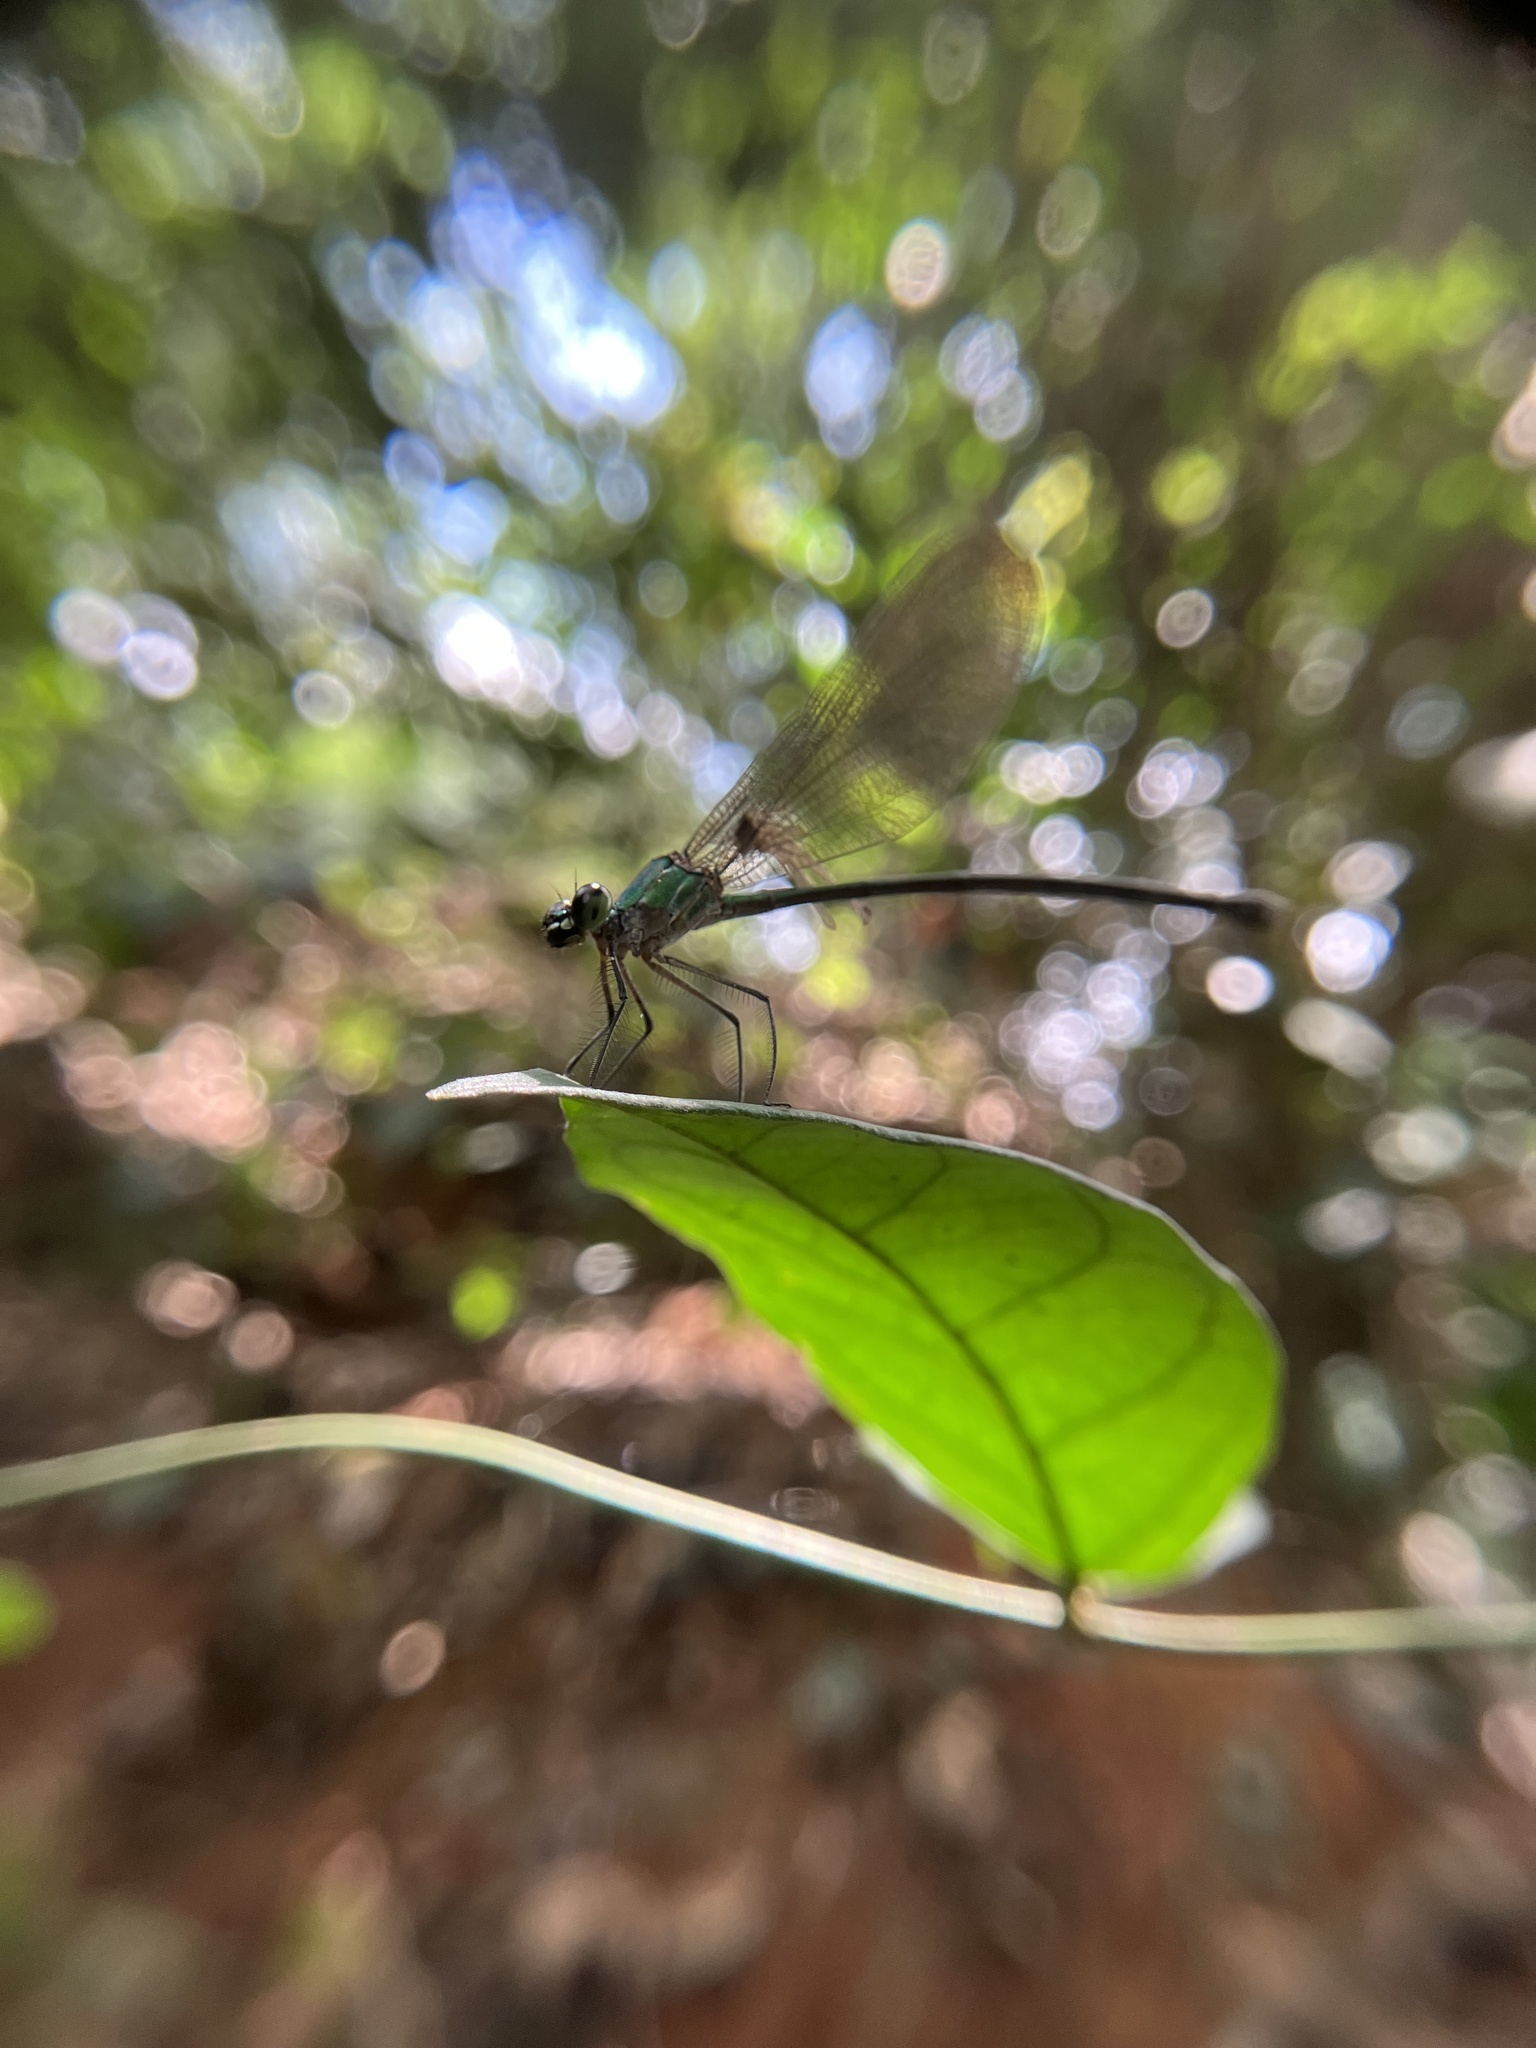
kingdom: Animalia
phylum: Arthropoda
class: Insecta
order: Odonata
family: Calopterygidae
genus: Vestalis
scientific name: Vestalis gracilis
